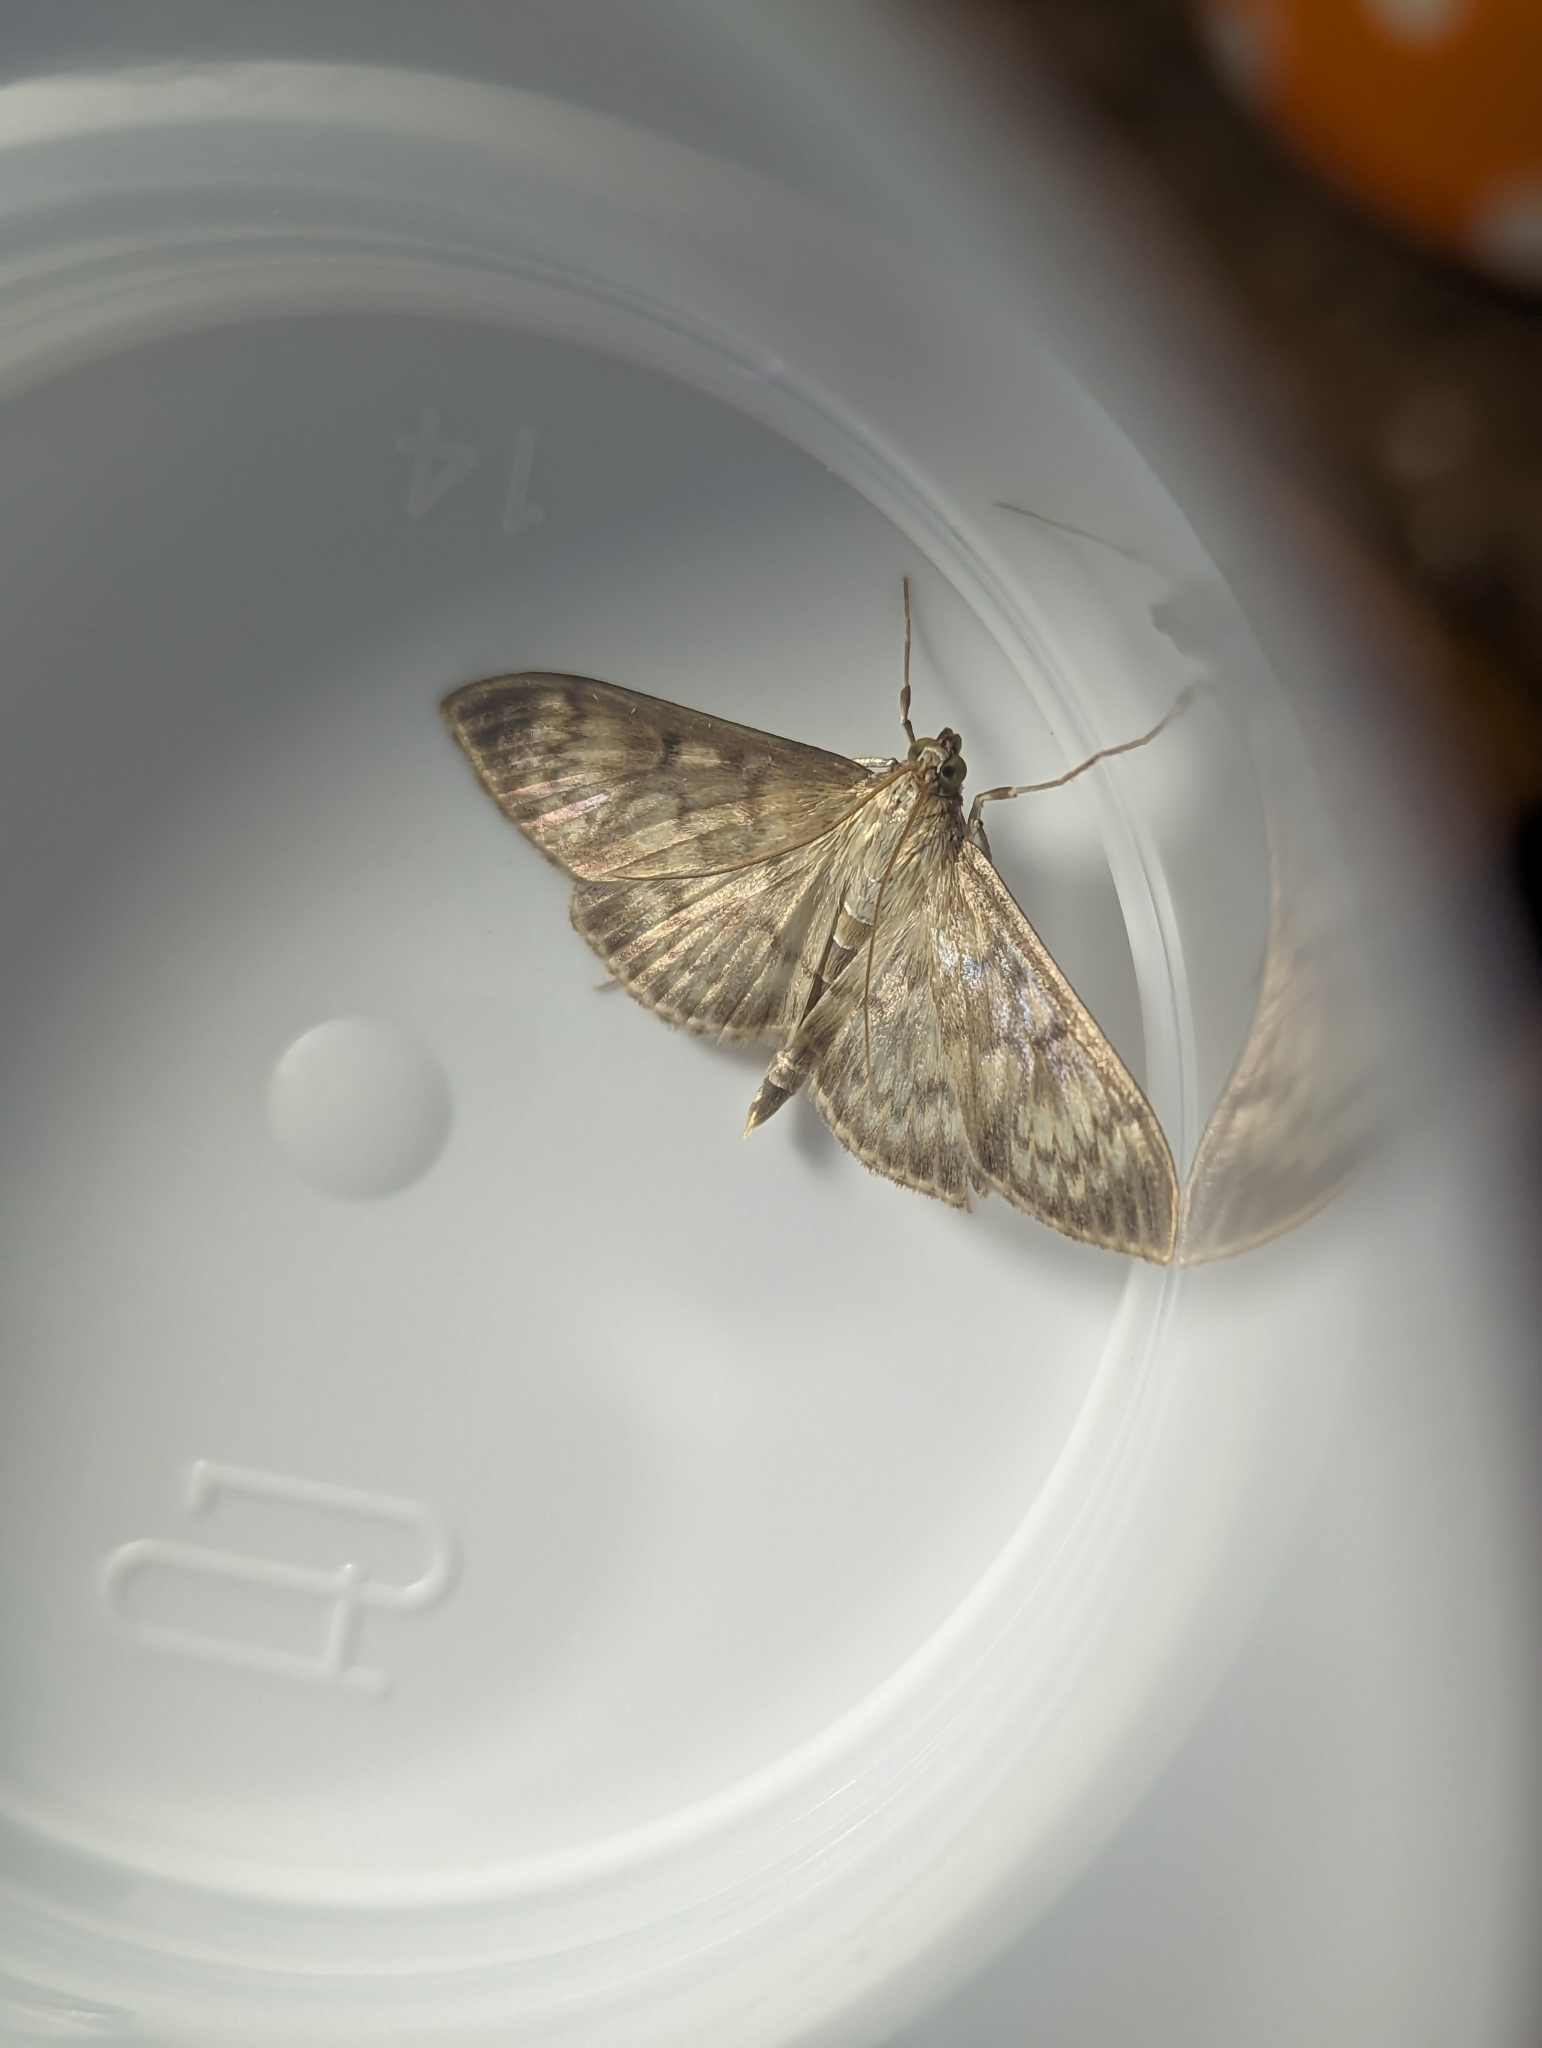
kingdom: Animalia
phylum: Arthropoda
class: Insecta
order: Lepidoptera
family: Crambidae
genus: Patania
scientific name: Patania ruralis
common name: Mother of pearl
